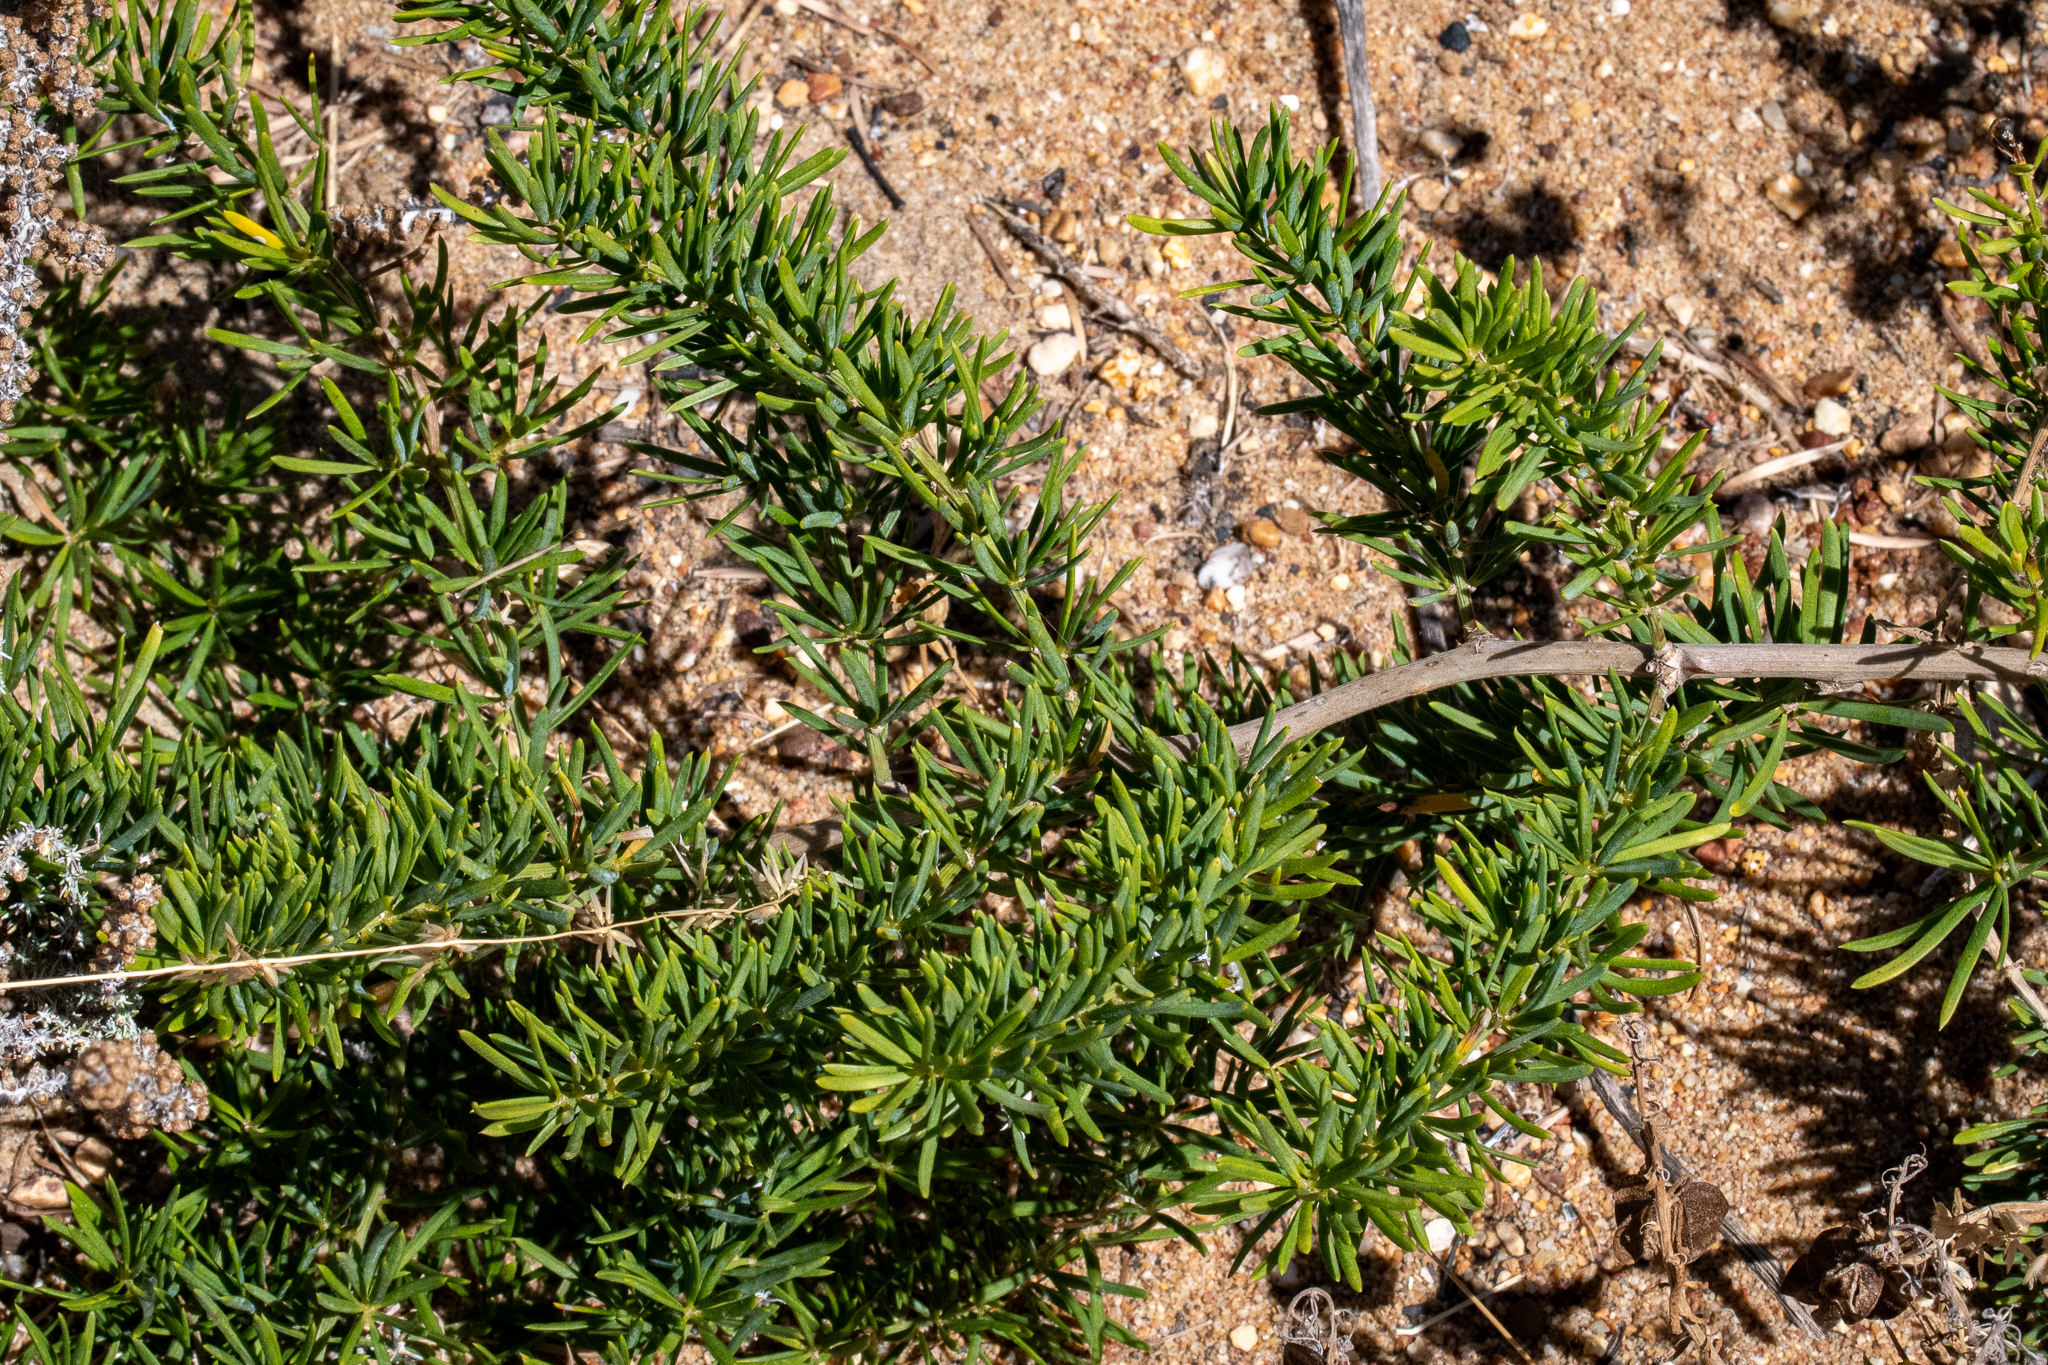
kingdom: Plantae
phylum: Tracheophyta
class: Liliopsida
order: Asparagales
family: Asparagaceae
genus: Asparagus
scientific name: Asparagus aethiopicus
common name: Sprenger's asparagus fern
